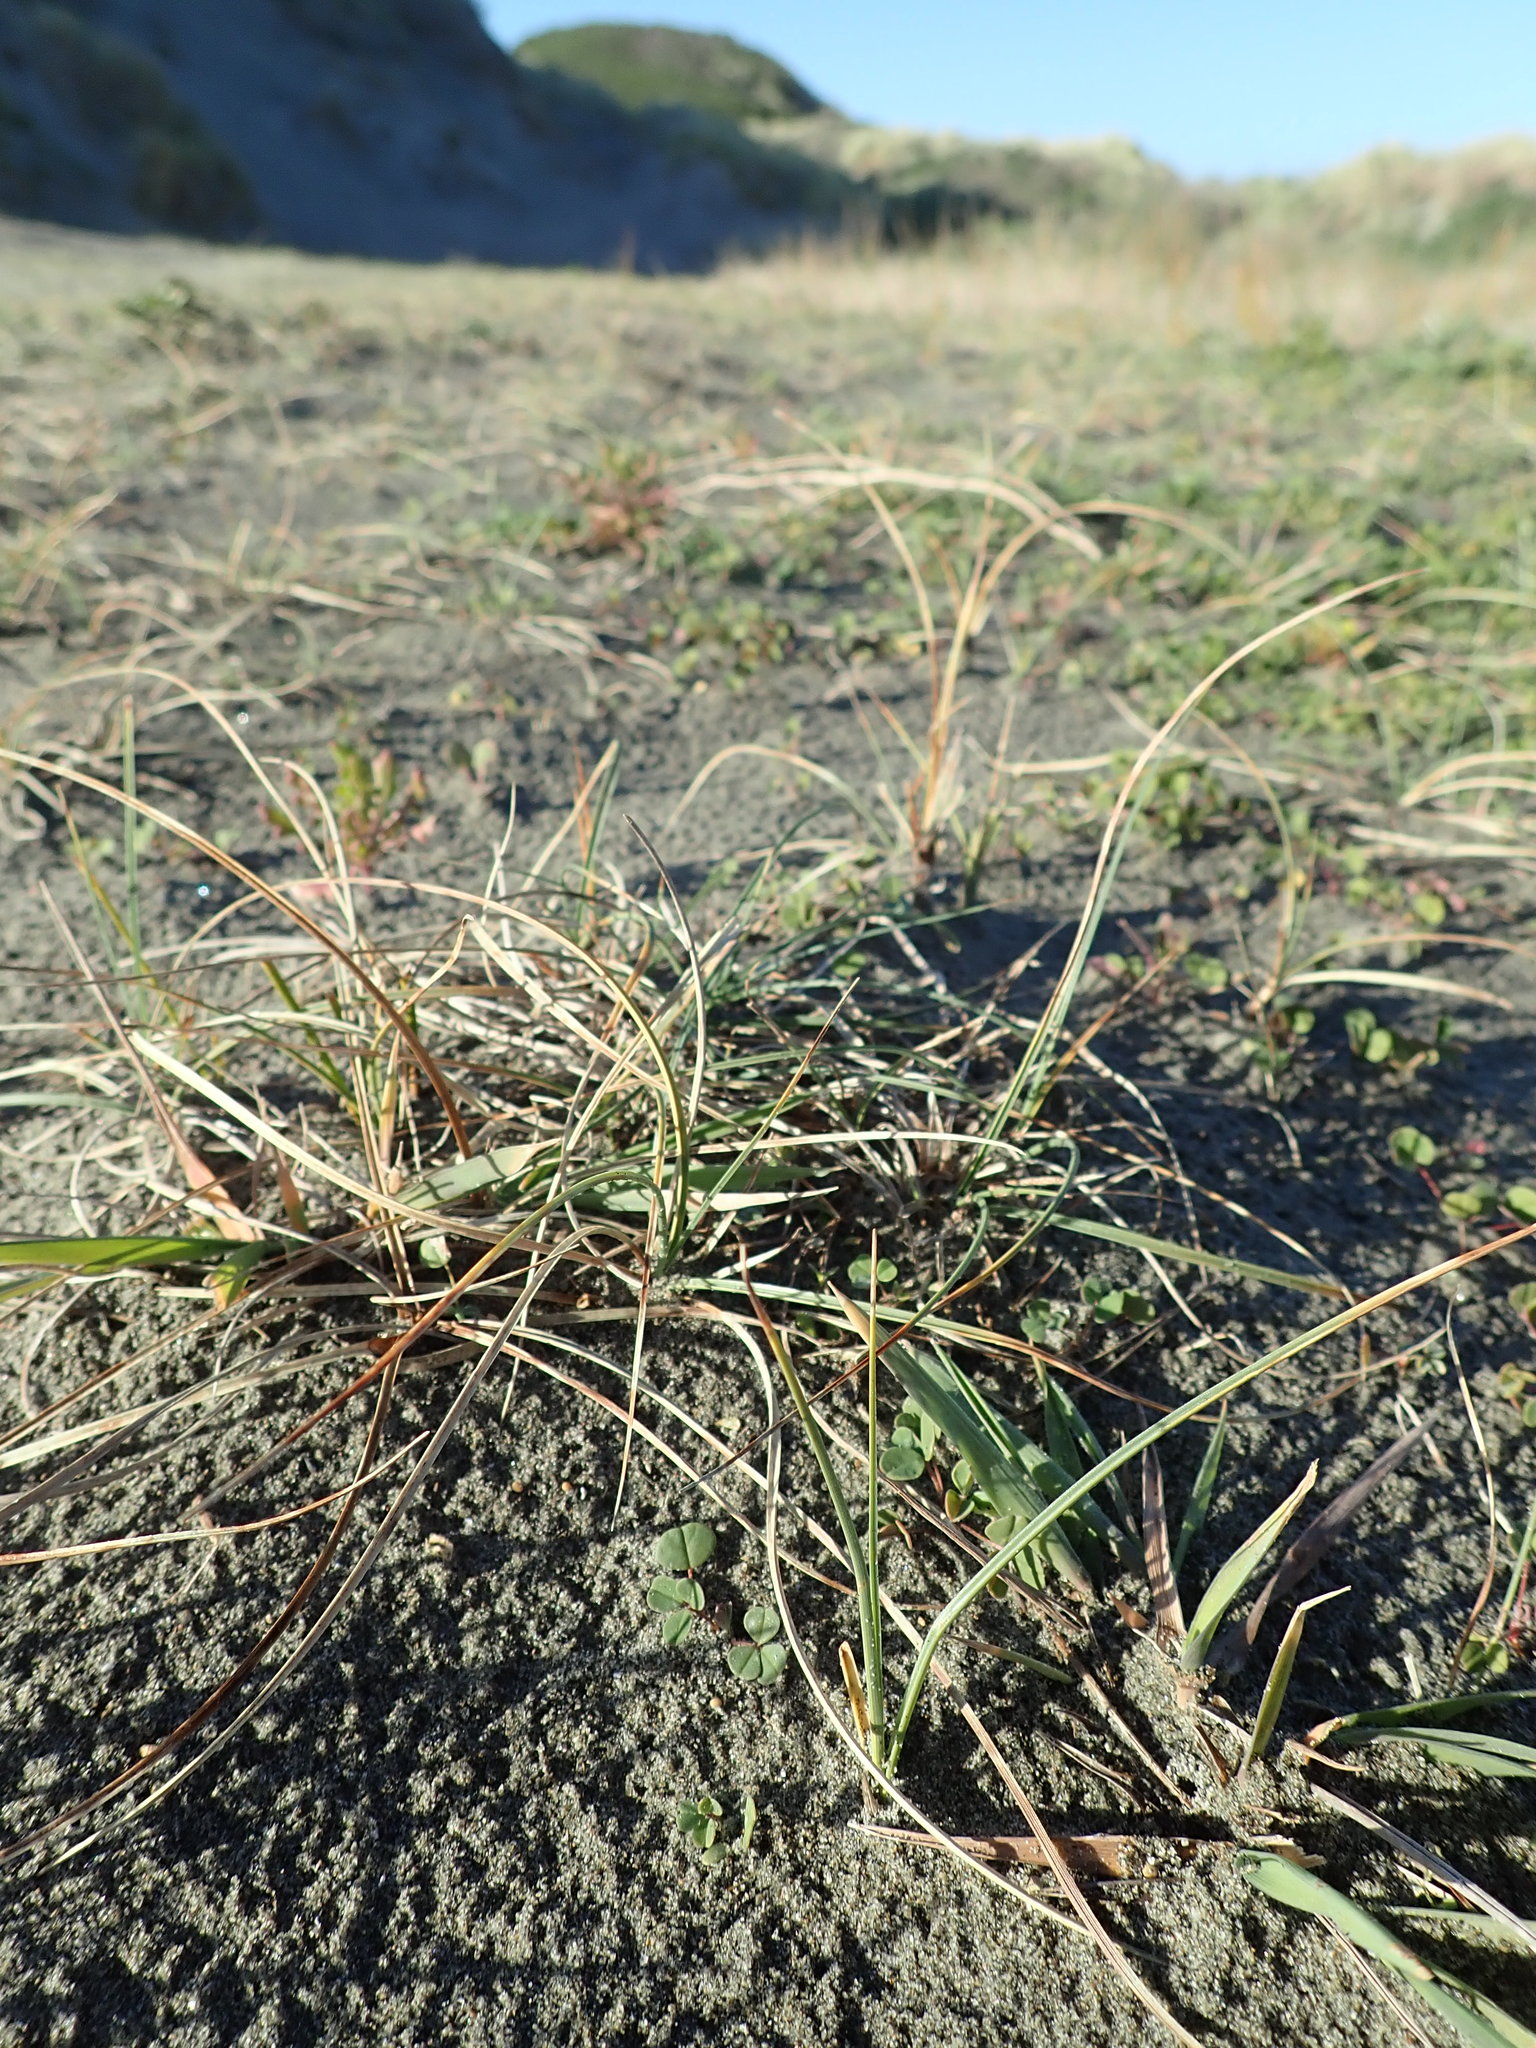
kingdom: Plantae
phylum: Tracheophyta
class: Liliopsida
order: Poales
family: Cyperaceae
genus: Carex
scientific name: Carex pumila
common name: Dwarf sedge
